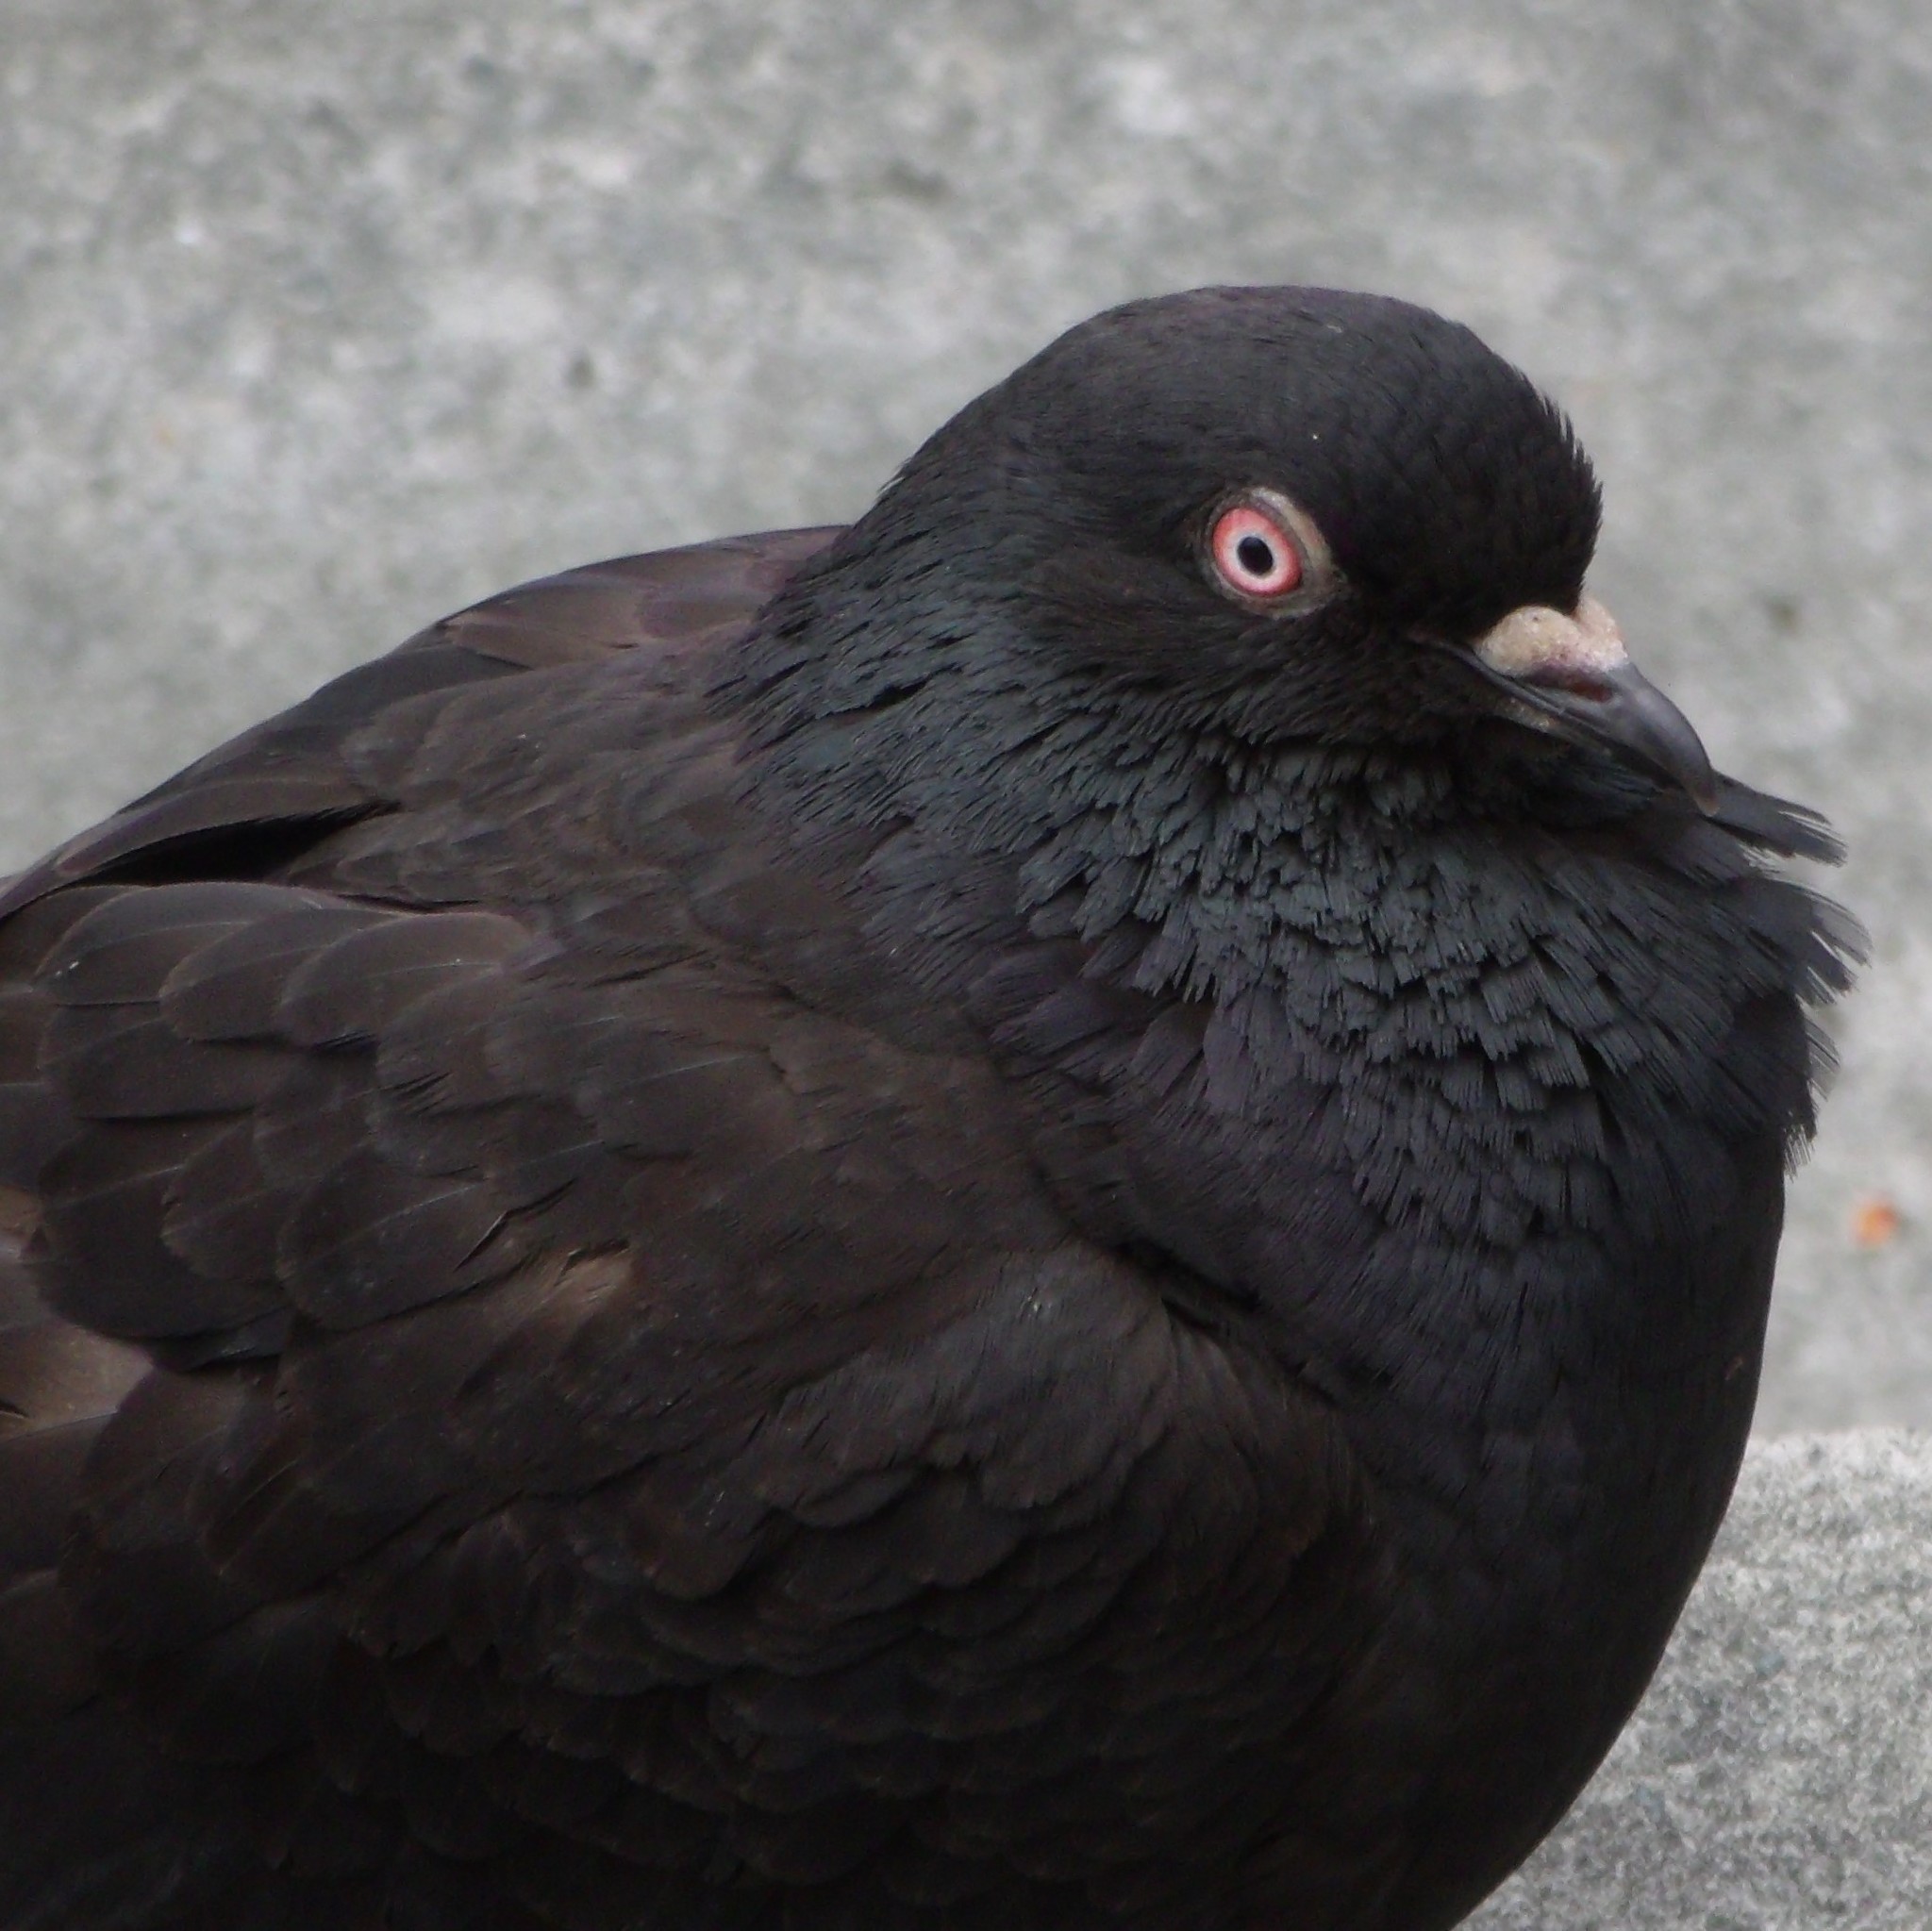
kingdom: Animalia
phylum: Chordata
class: Aves
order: Columbiformes
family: Columbidae
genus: Columba
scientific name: Columba livia
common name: Rock pigeon
